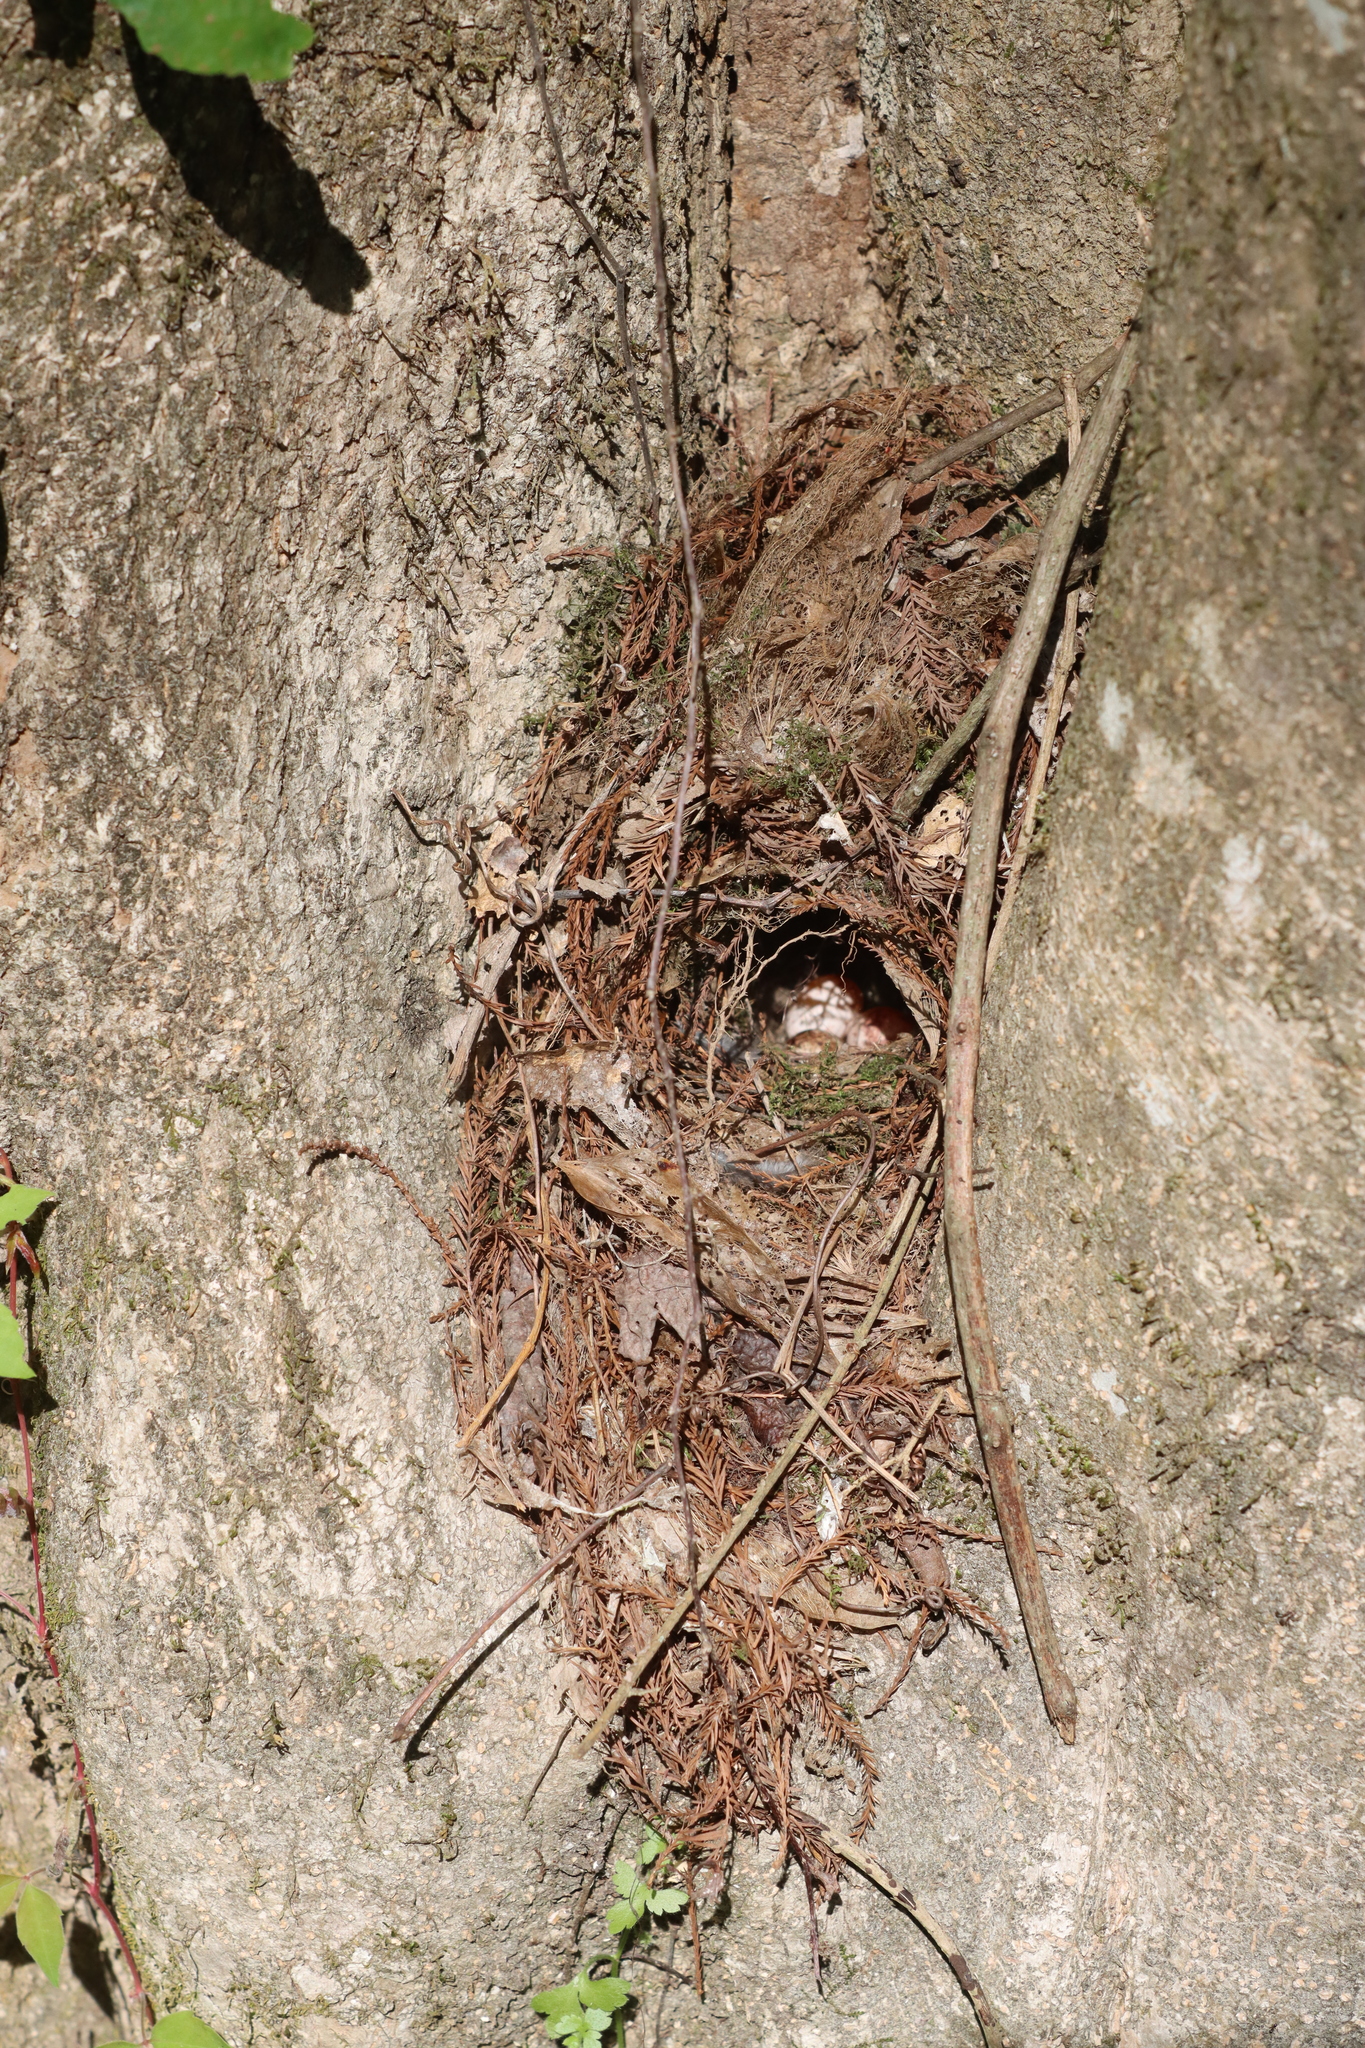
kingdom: Animalia
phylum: Chordata
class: Aves
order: Passeriformes
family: Troglodytidae
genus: Thryothorus
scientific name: Thryothorus ludovicianus
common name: Carolina wren
